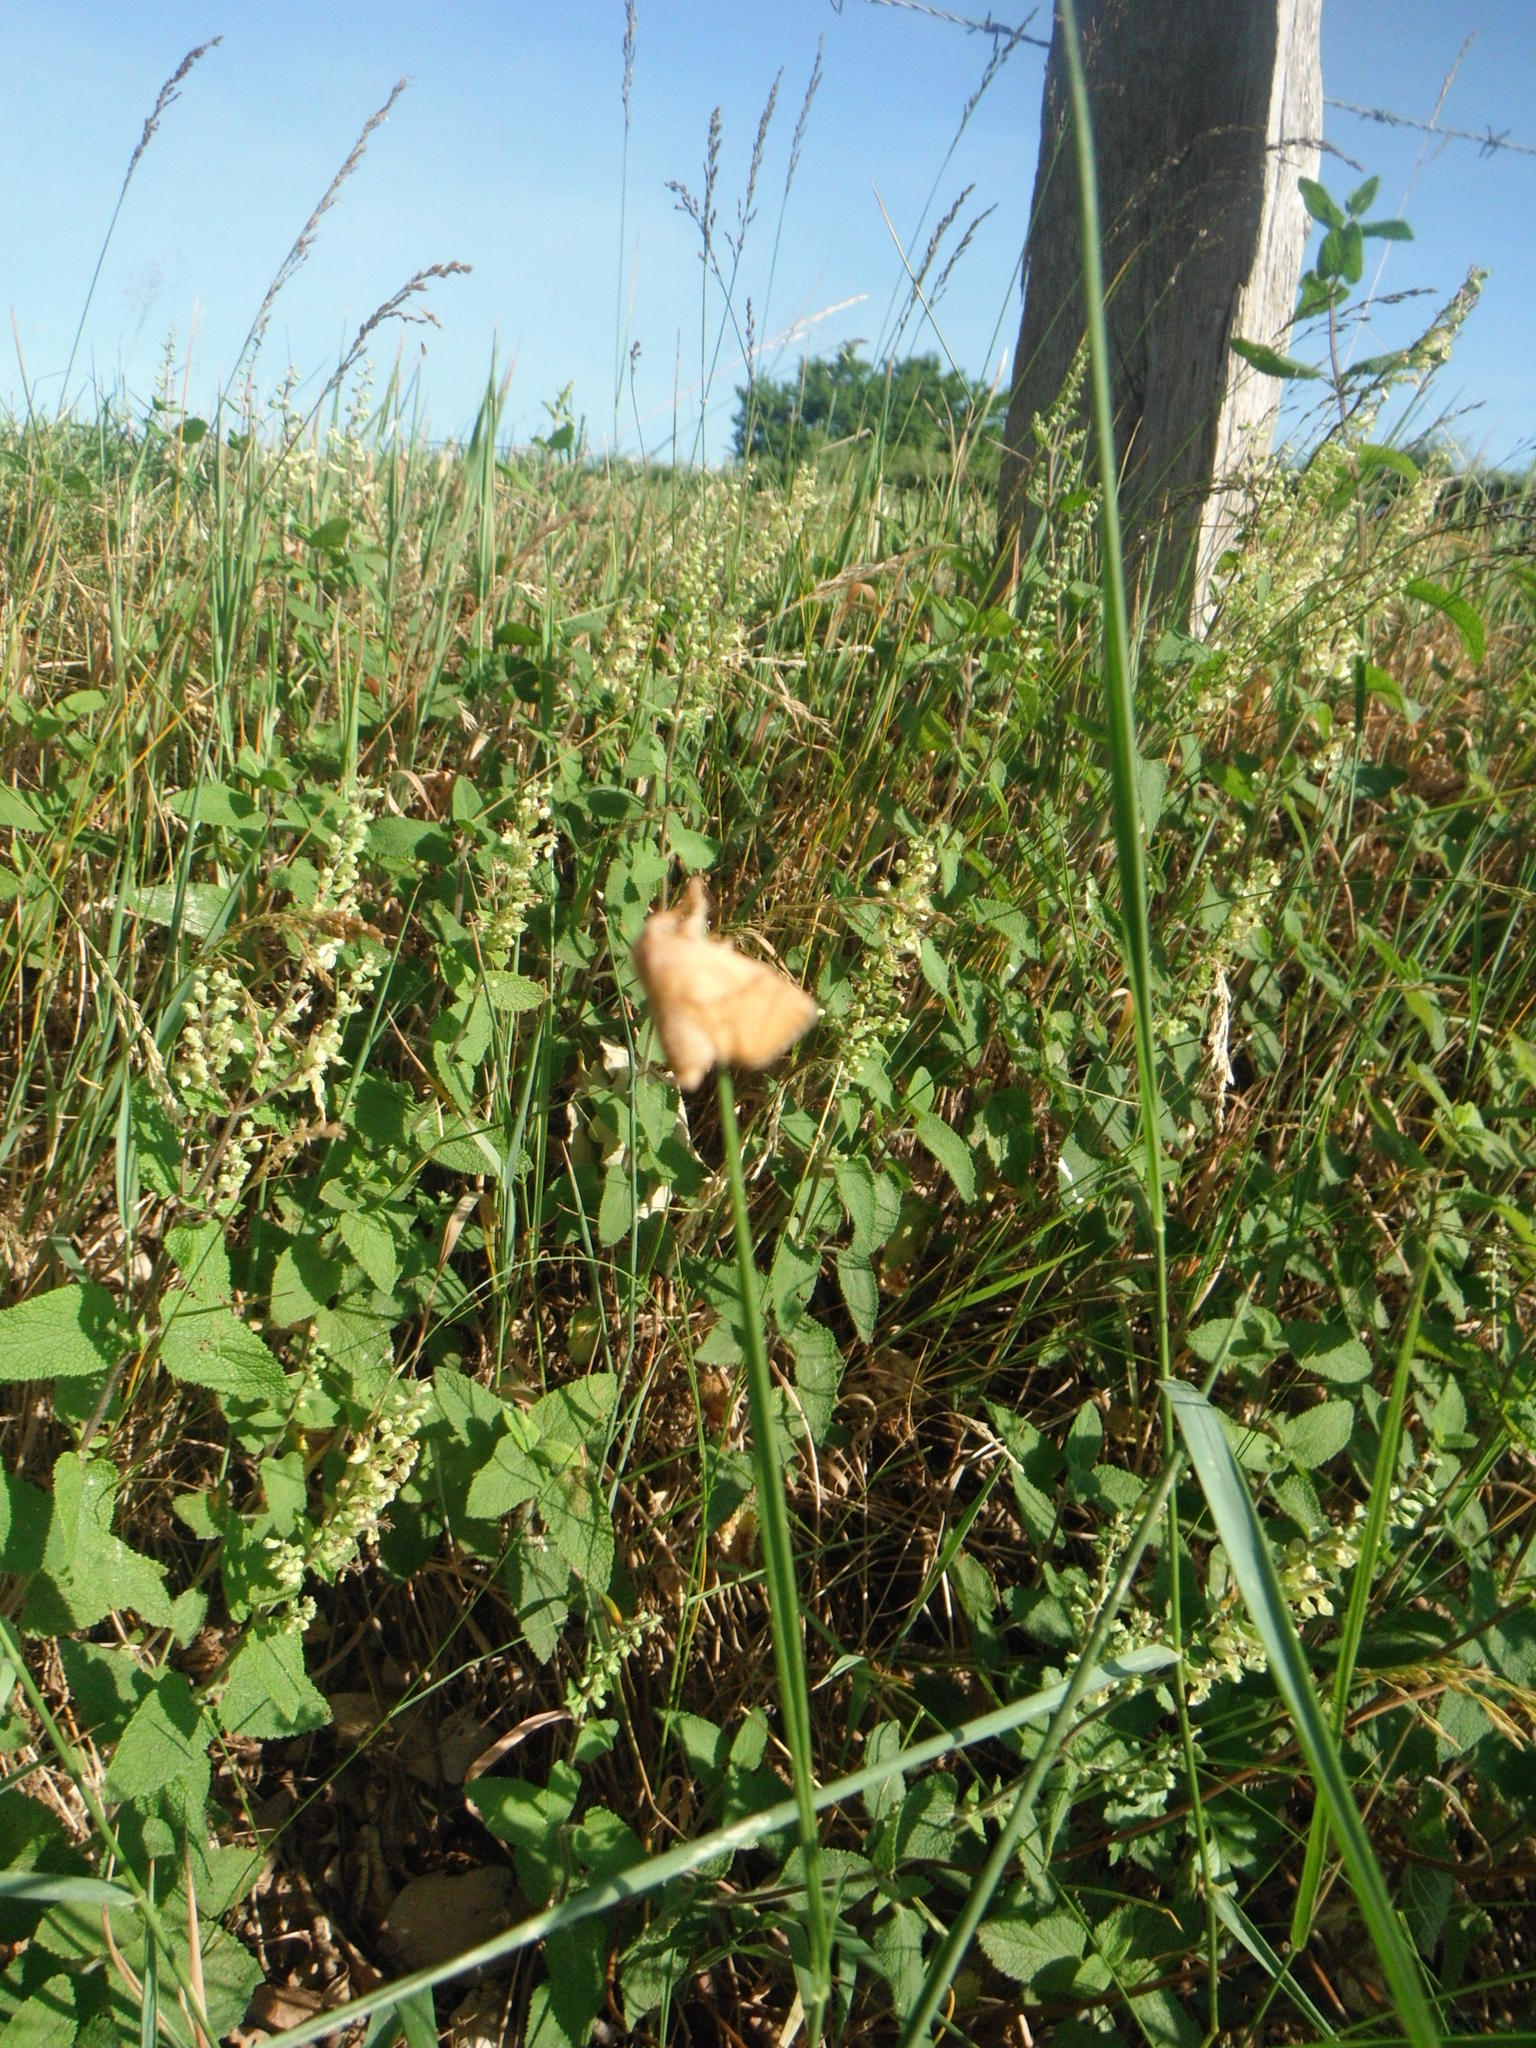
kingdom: Plantae
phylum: Tracheophyta
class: Magnoliopsida
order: Lamiales
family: Lamiaceae
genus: Teucrium
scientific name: Teucrium scorodonia
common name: Woodland germander
